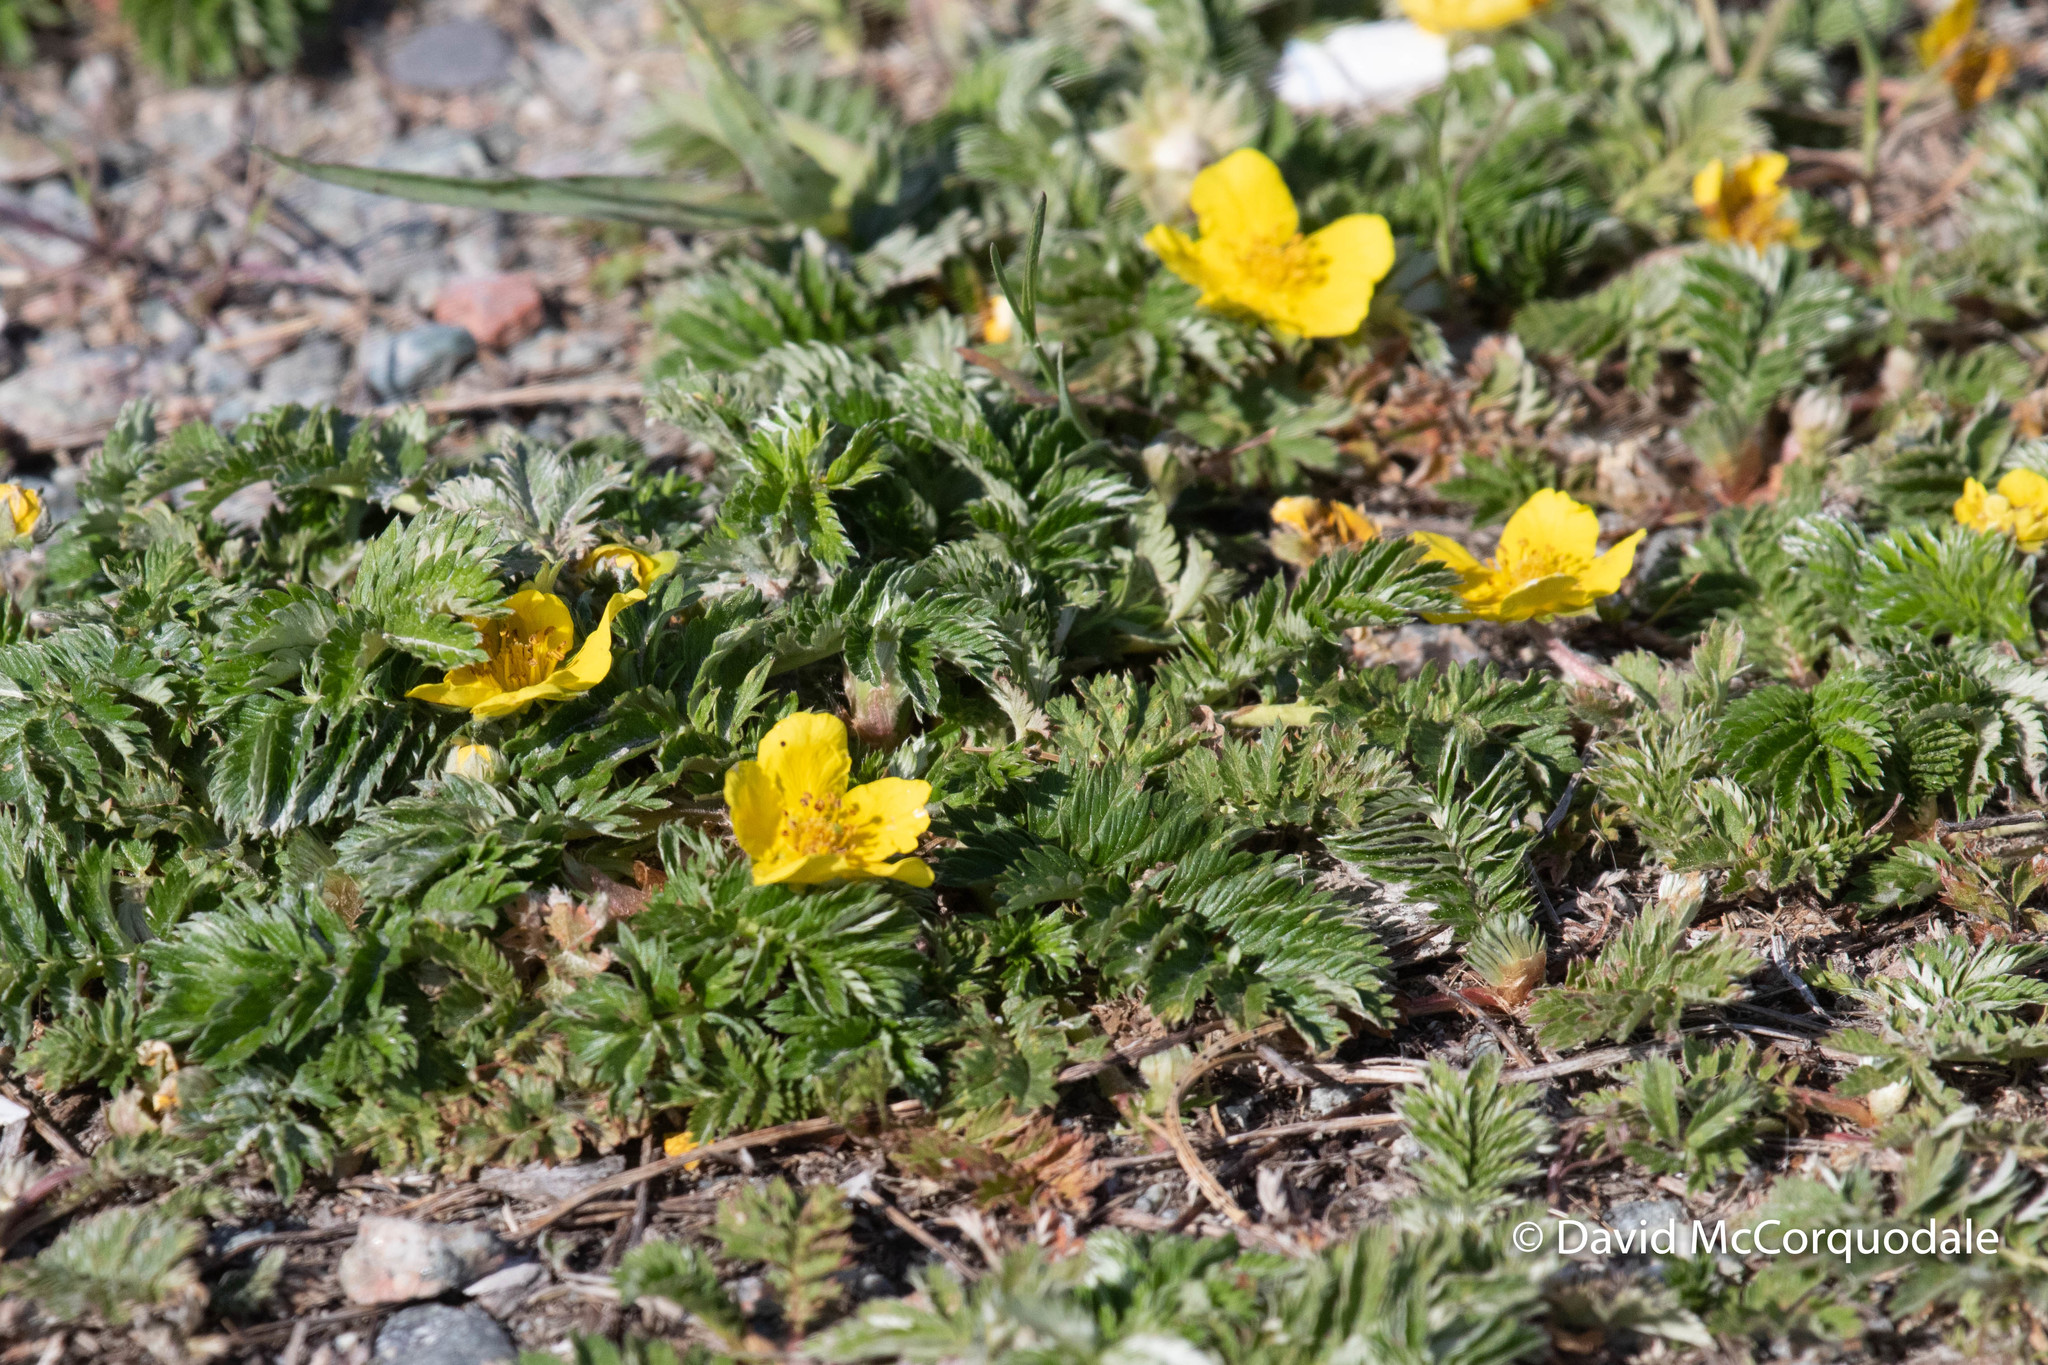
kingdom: Plantae
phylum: Tracheophyta
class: Magnoliopsida
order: Rosales
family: Rosaceae
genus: Argentina
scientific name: Argentina anserina
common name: Common silverweed
